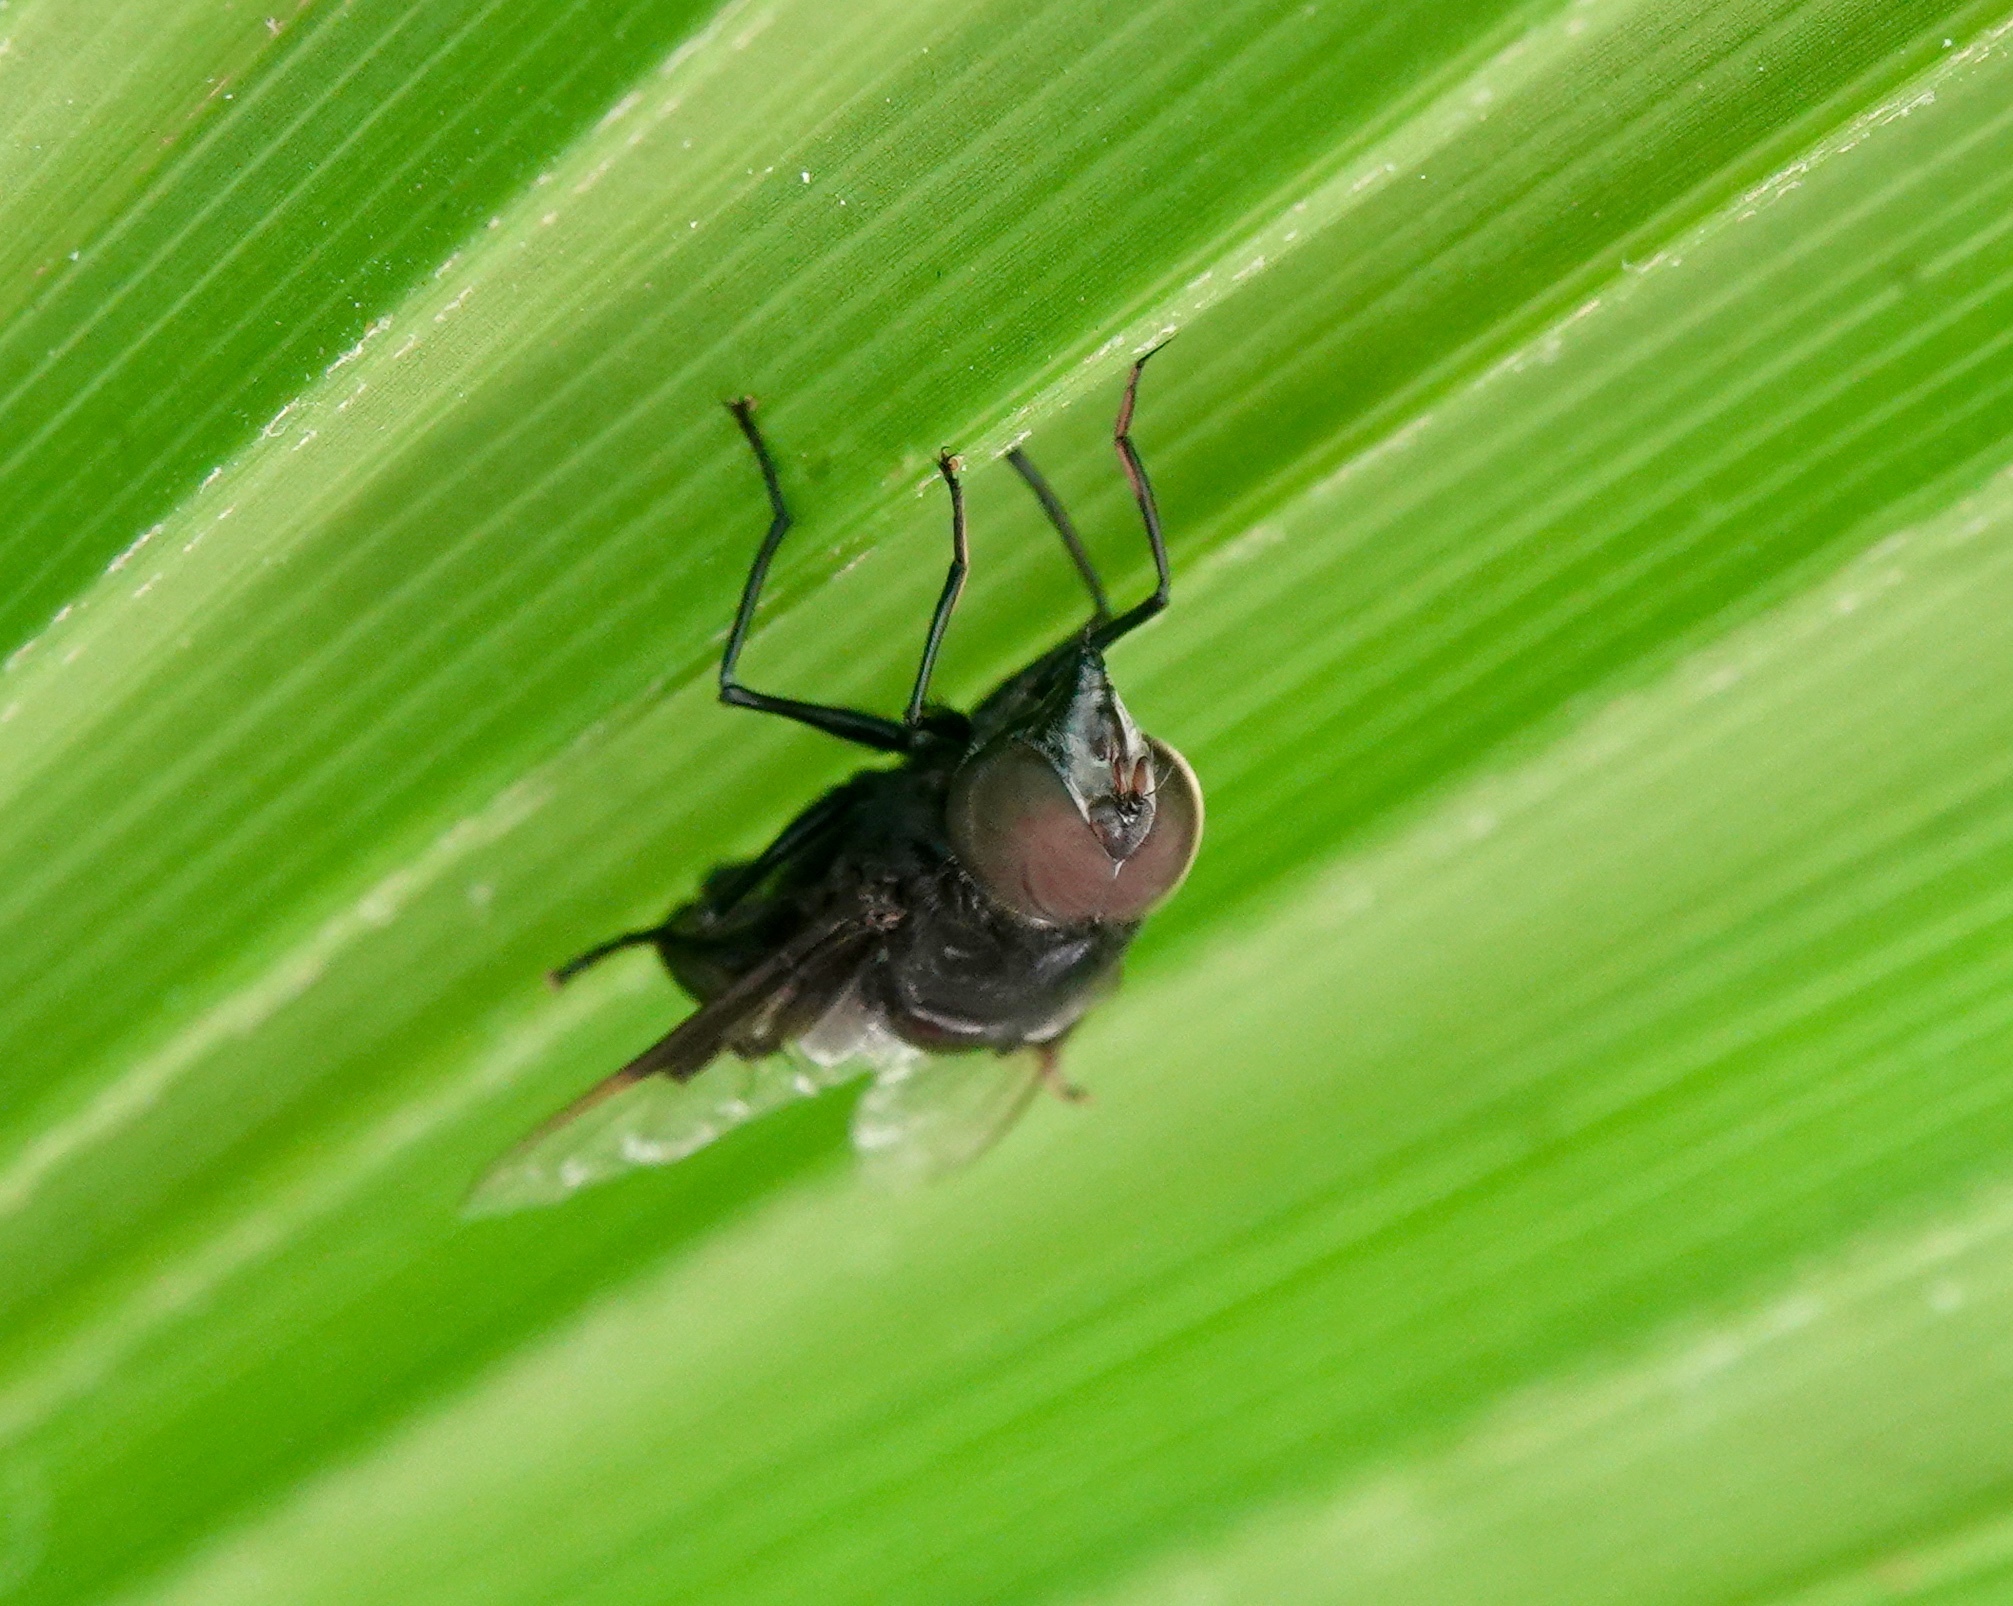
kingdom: Animalia
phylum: Arthropoda
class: Insecta
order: Diptera
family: Syrphidae
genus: Copestylum
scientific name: Copestylum
